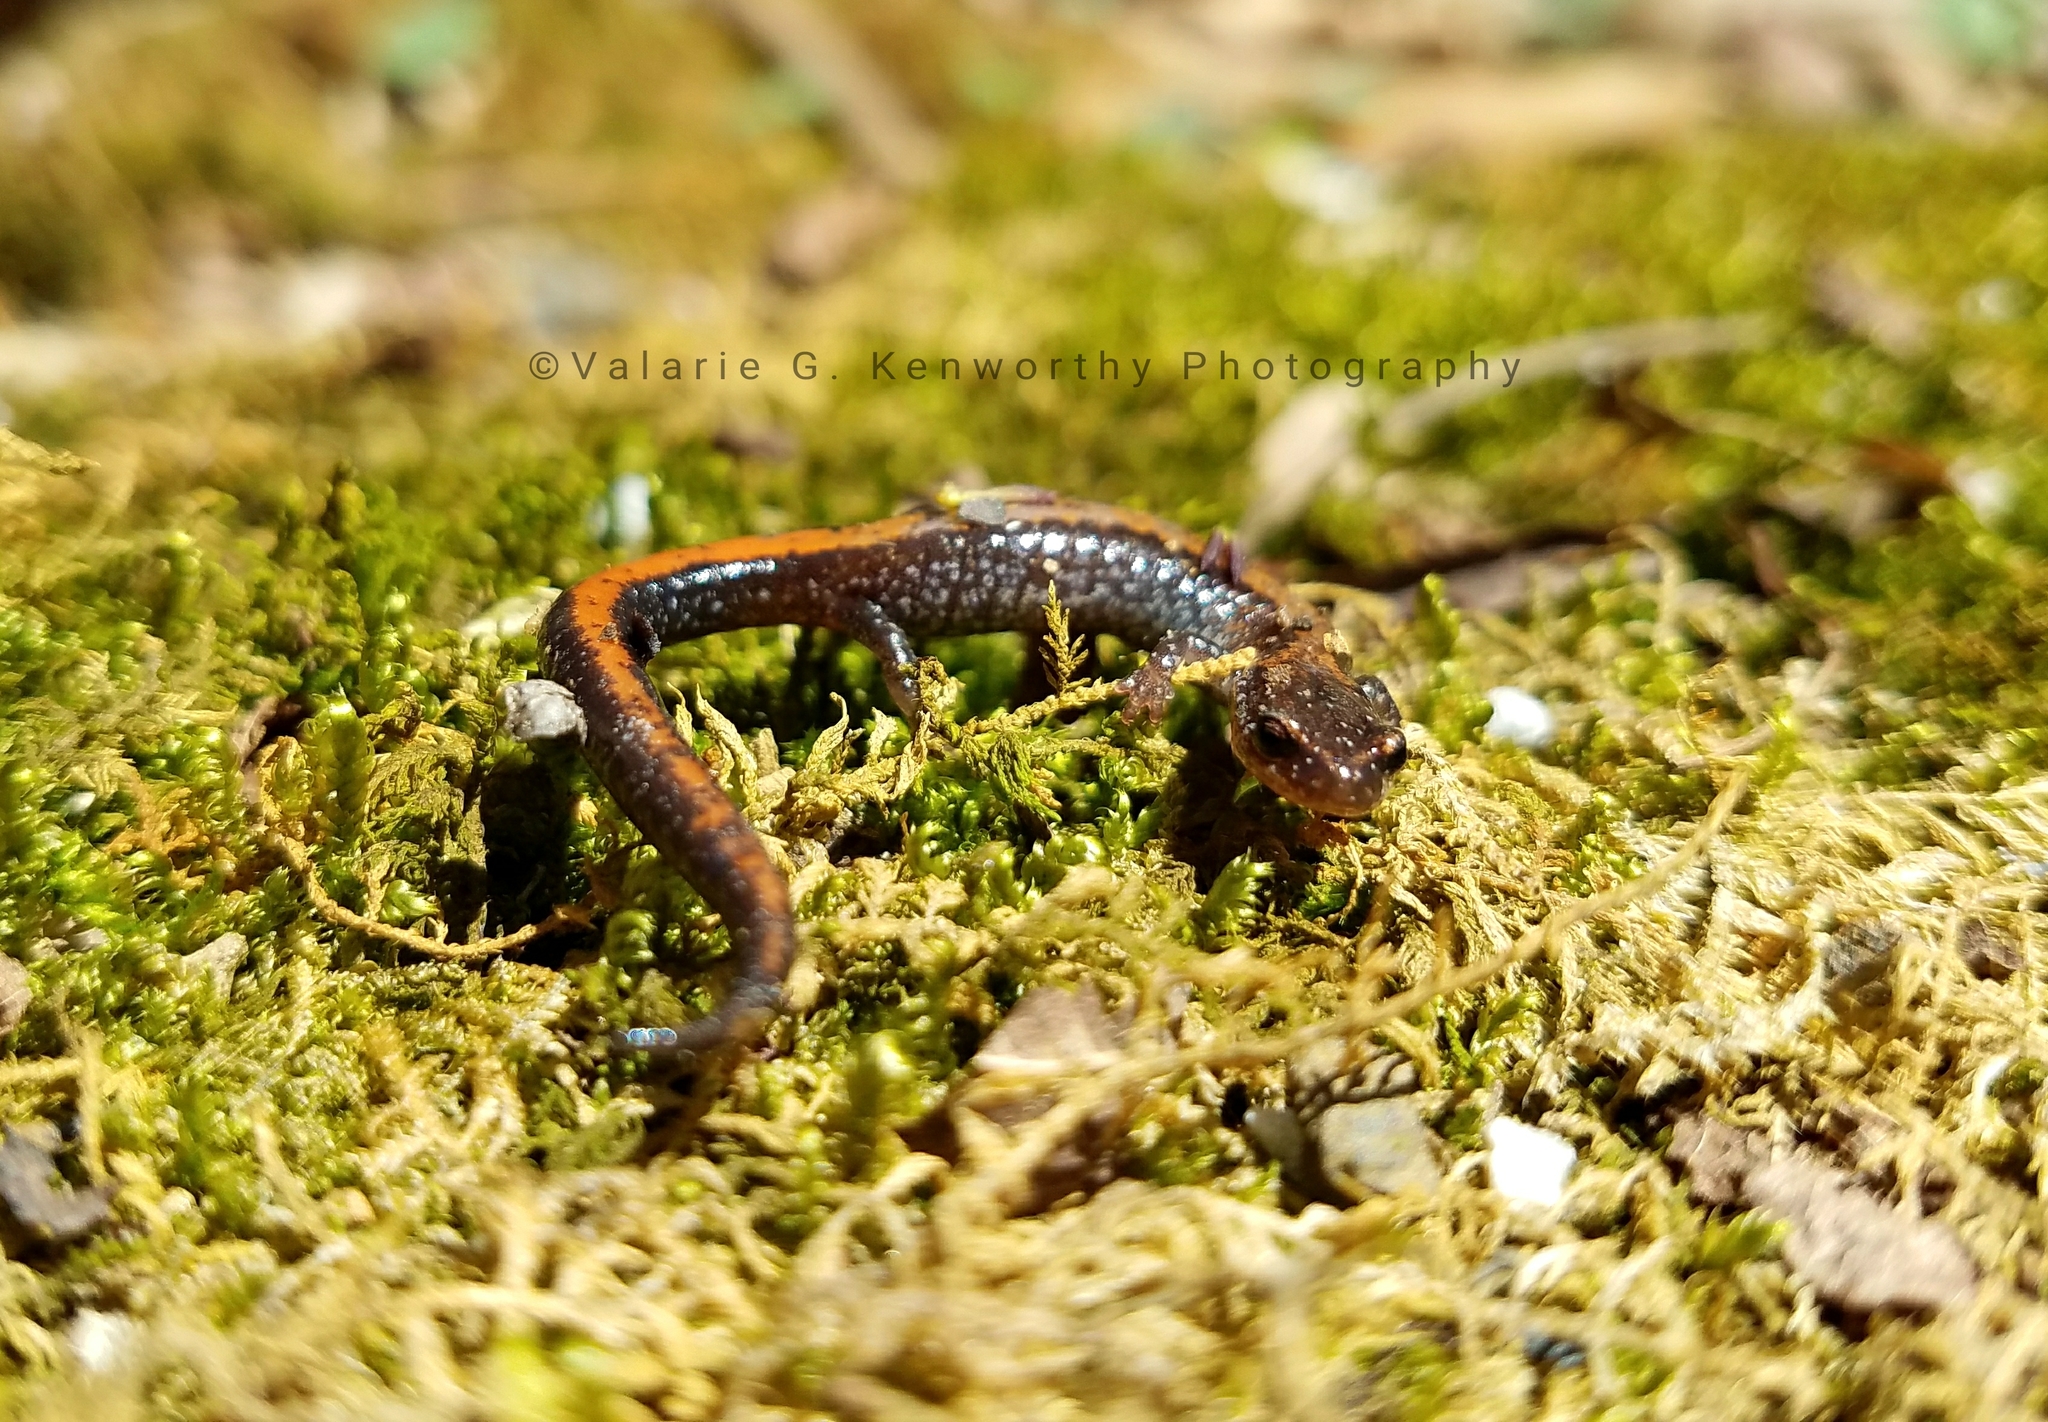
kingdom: Animalia
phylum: Chordata
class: Amphibia
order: Caudata
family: Plethodontidae
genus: Plethodon
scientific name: Plethodon cinereus
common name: Redback salamander
